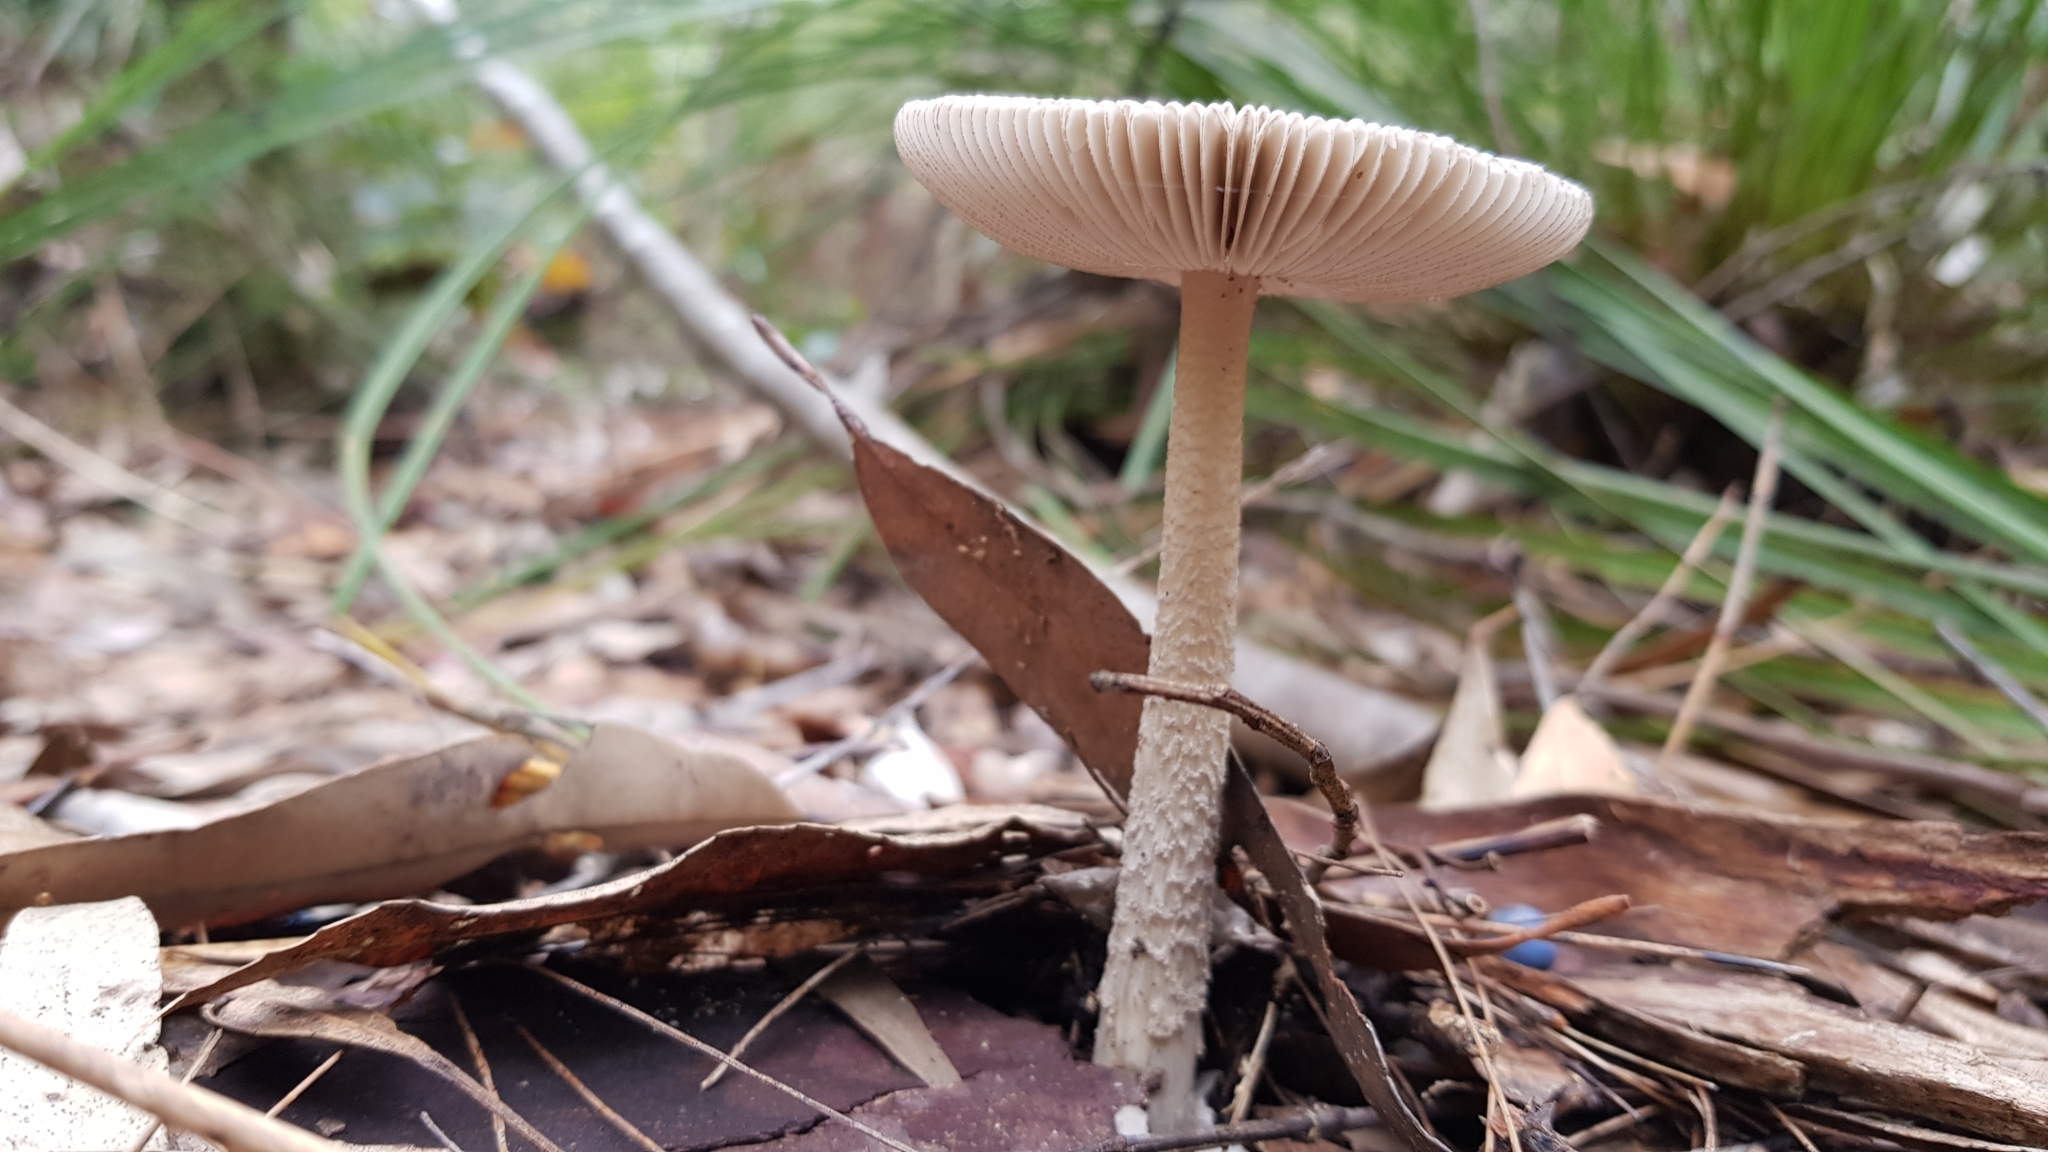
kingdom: Fungi
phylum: Basidiomycota
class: Agaricomycetes
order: Agaricales
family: Amanitaceae
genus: Amanita
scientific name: Amanita cheelii
